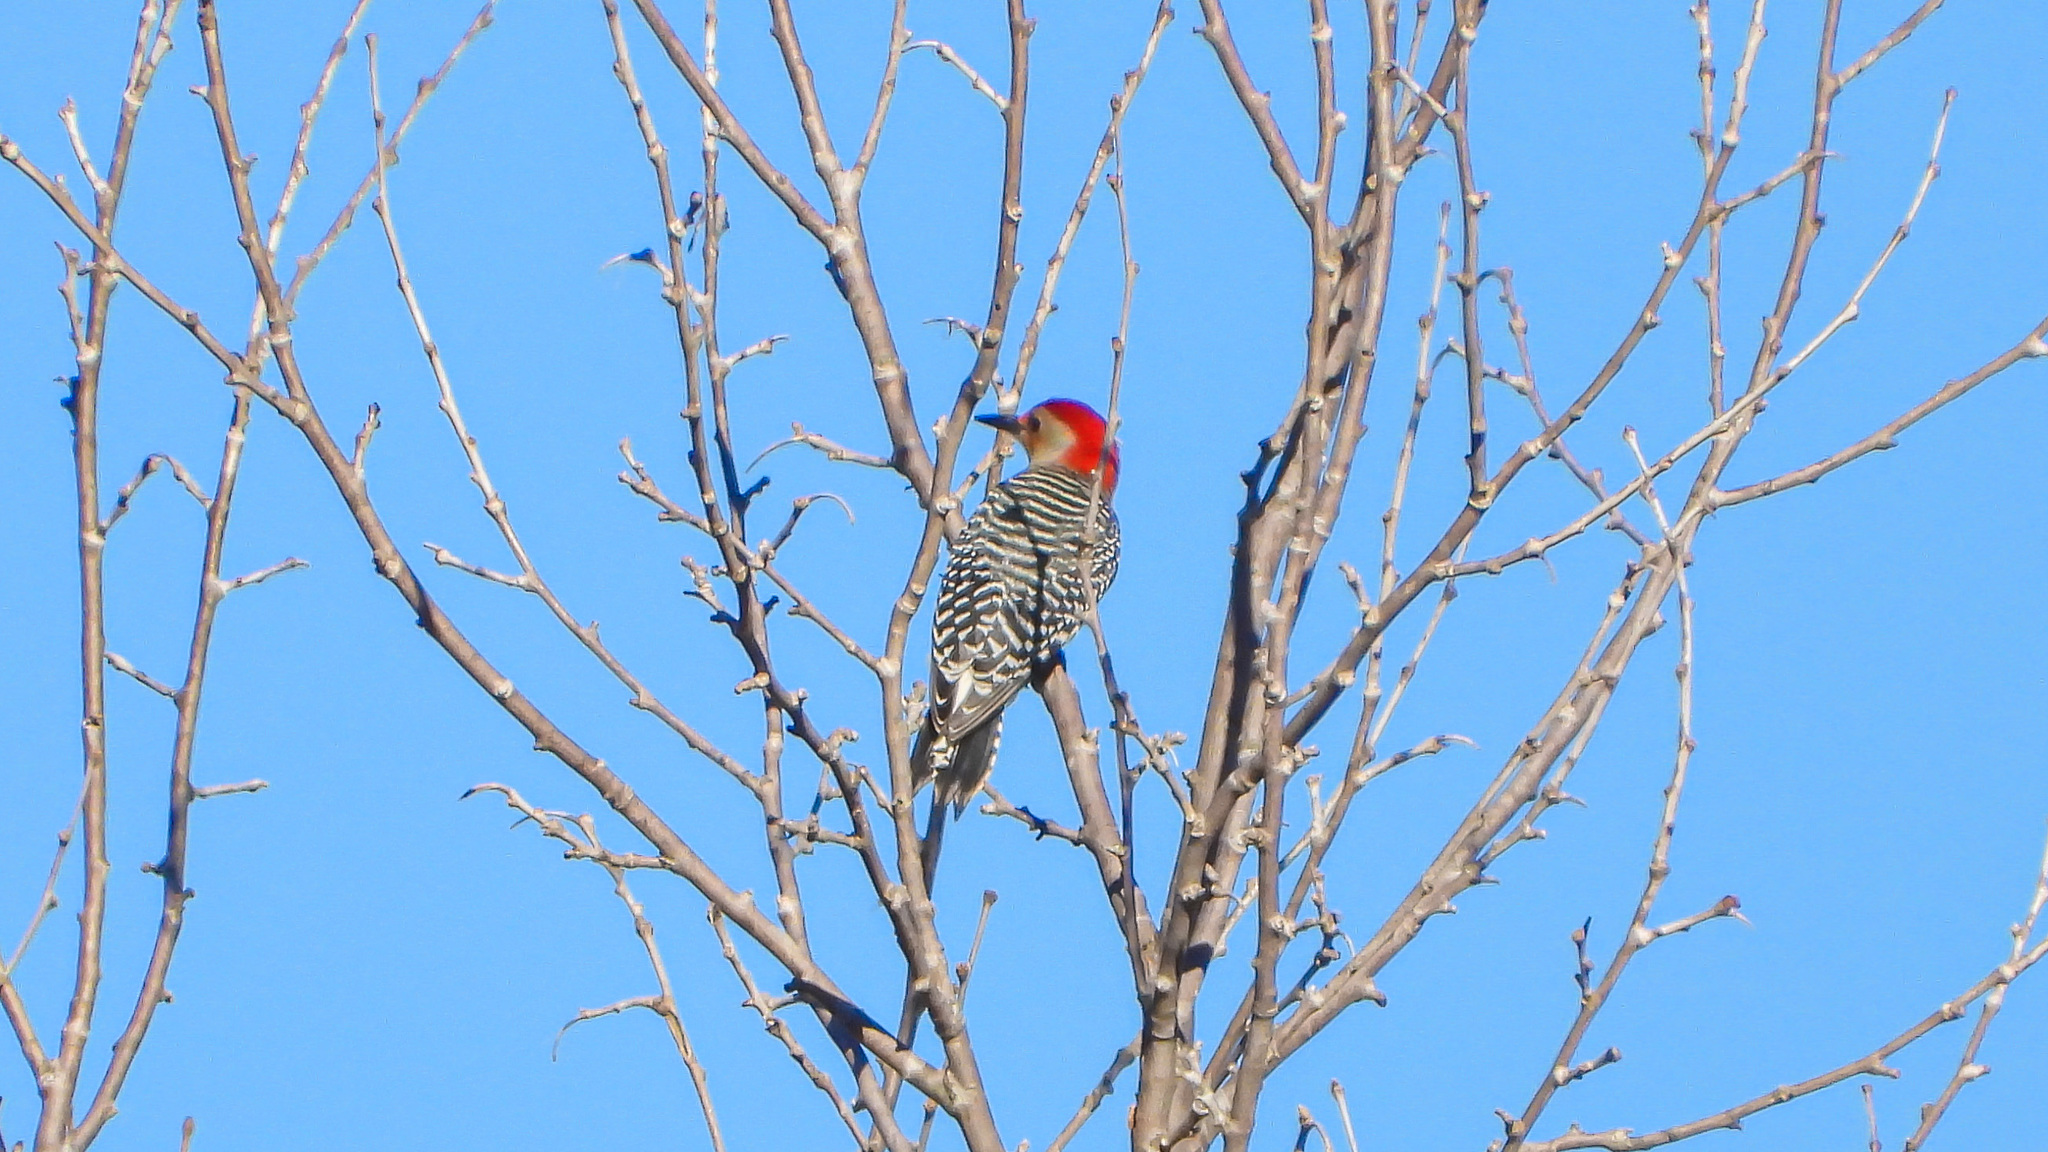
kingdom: Animalia
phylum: Chordata
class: Aves
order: Piciformes
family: Picidae
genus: Melanerpes
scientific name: Melanerpes carolinus
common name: Red-bellied woodpecker
